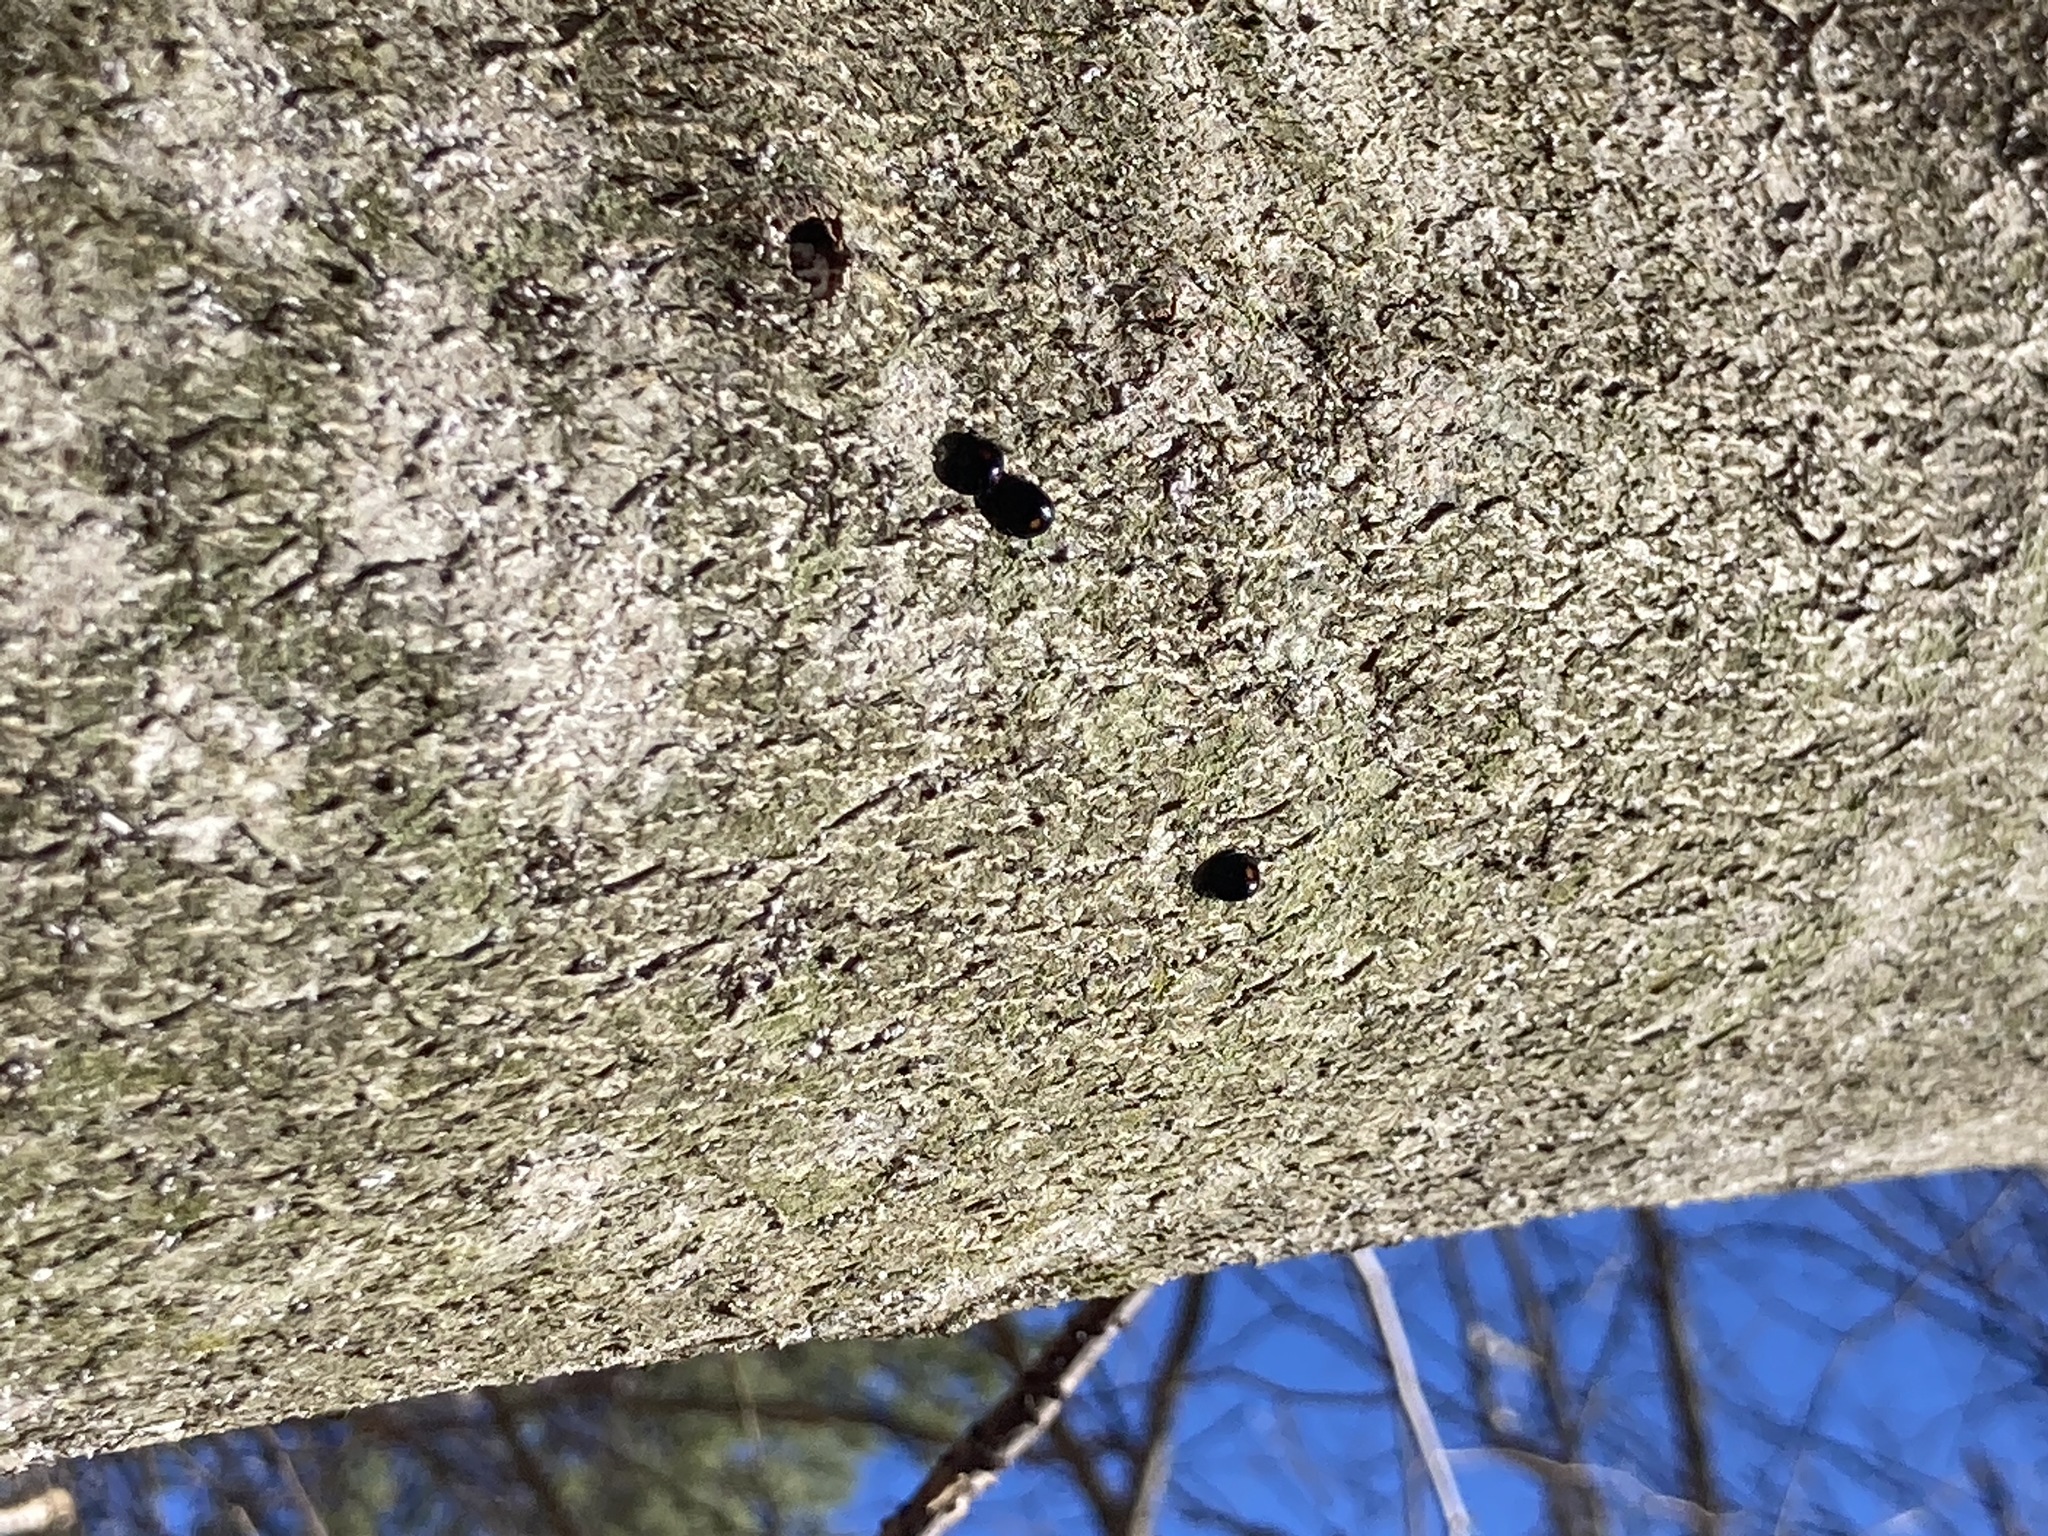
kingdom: Animalia
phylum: Arthropoda
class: Insecta
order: Coleoptera
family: Coccinellidae
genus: Chilocorus
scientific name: Chilocorus stigma
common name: Twicestabbed lady beetle
